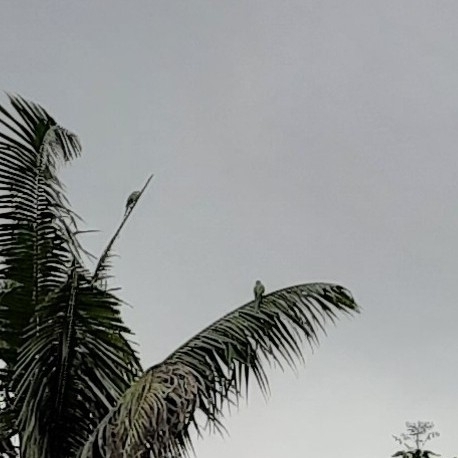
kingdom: Animalia
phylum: Chordata
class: Aves
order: Psittaciformes
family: Psittacidae
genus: Psittacula
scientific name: Psittacula krameri
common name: Rose-ringed parakeet
